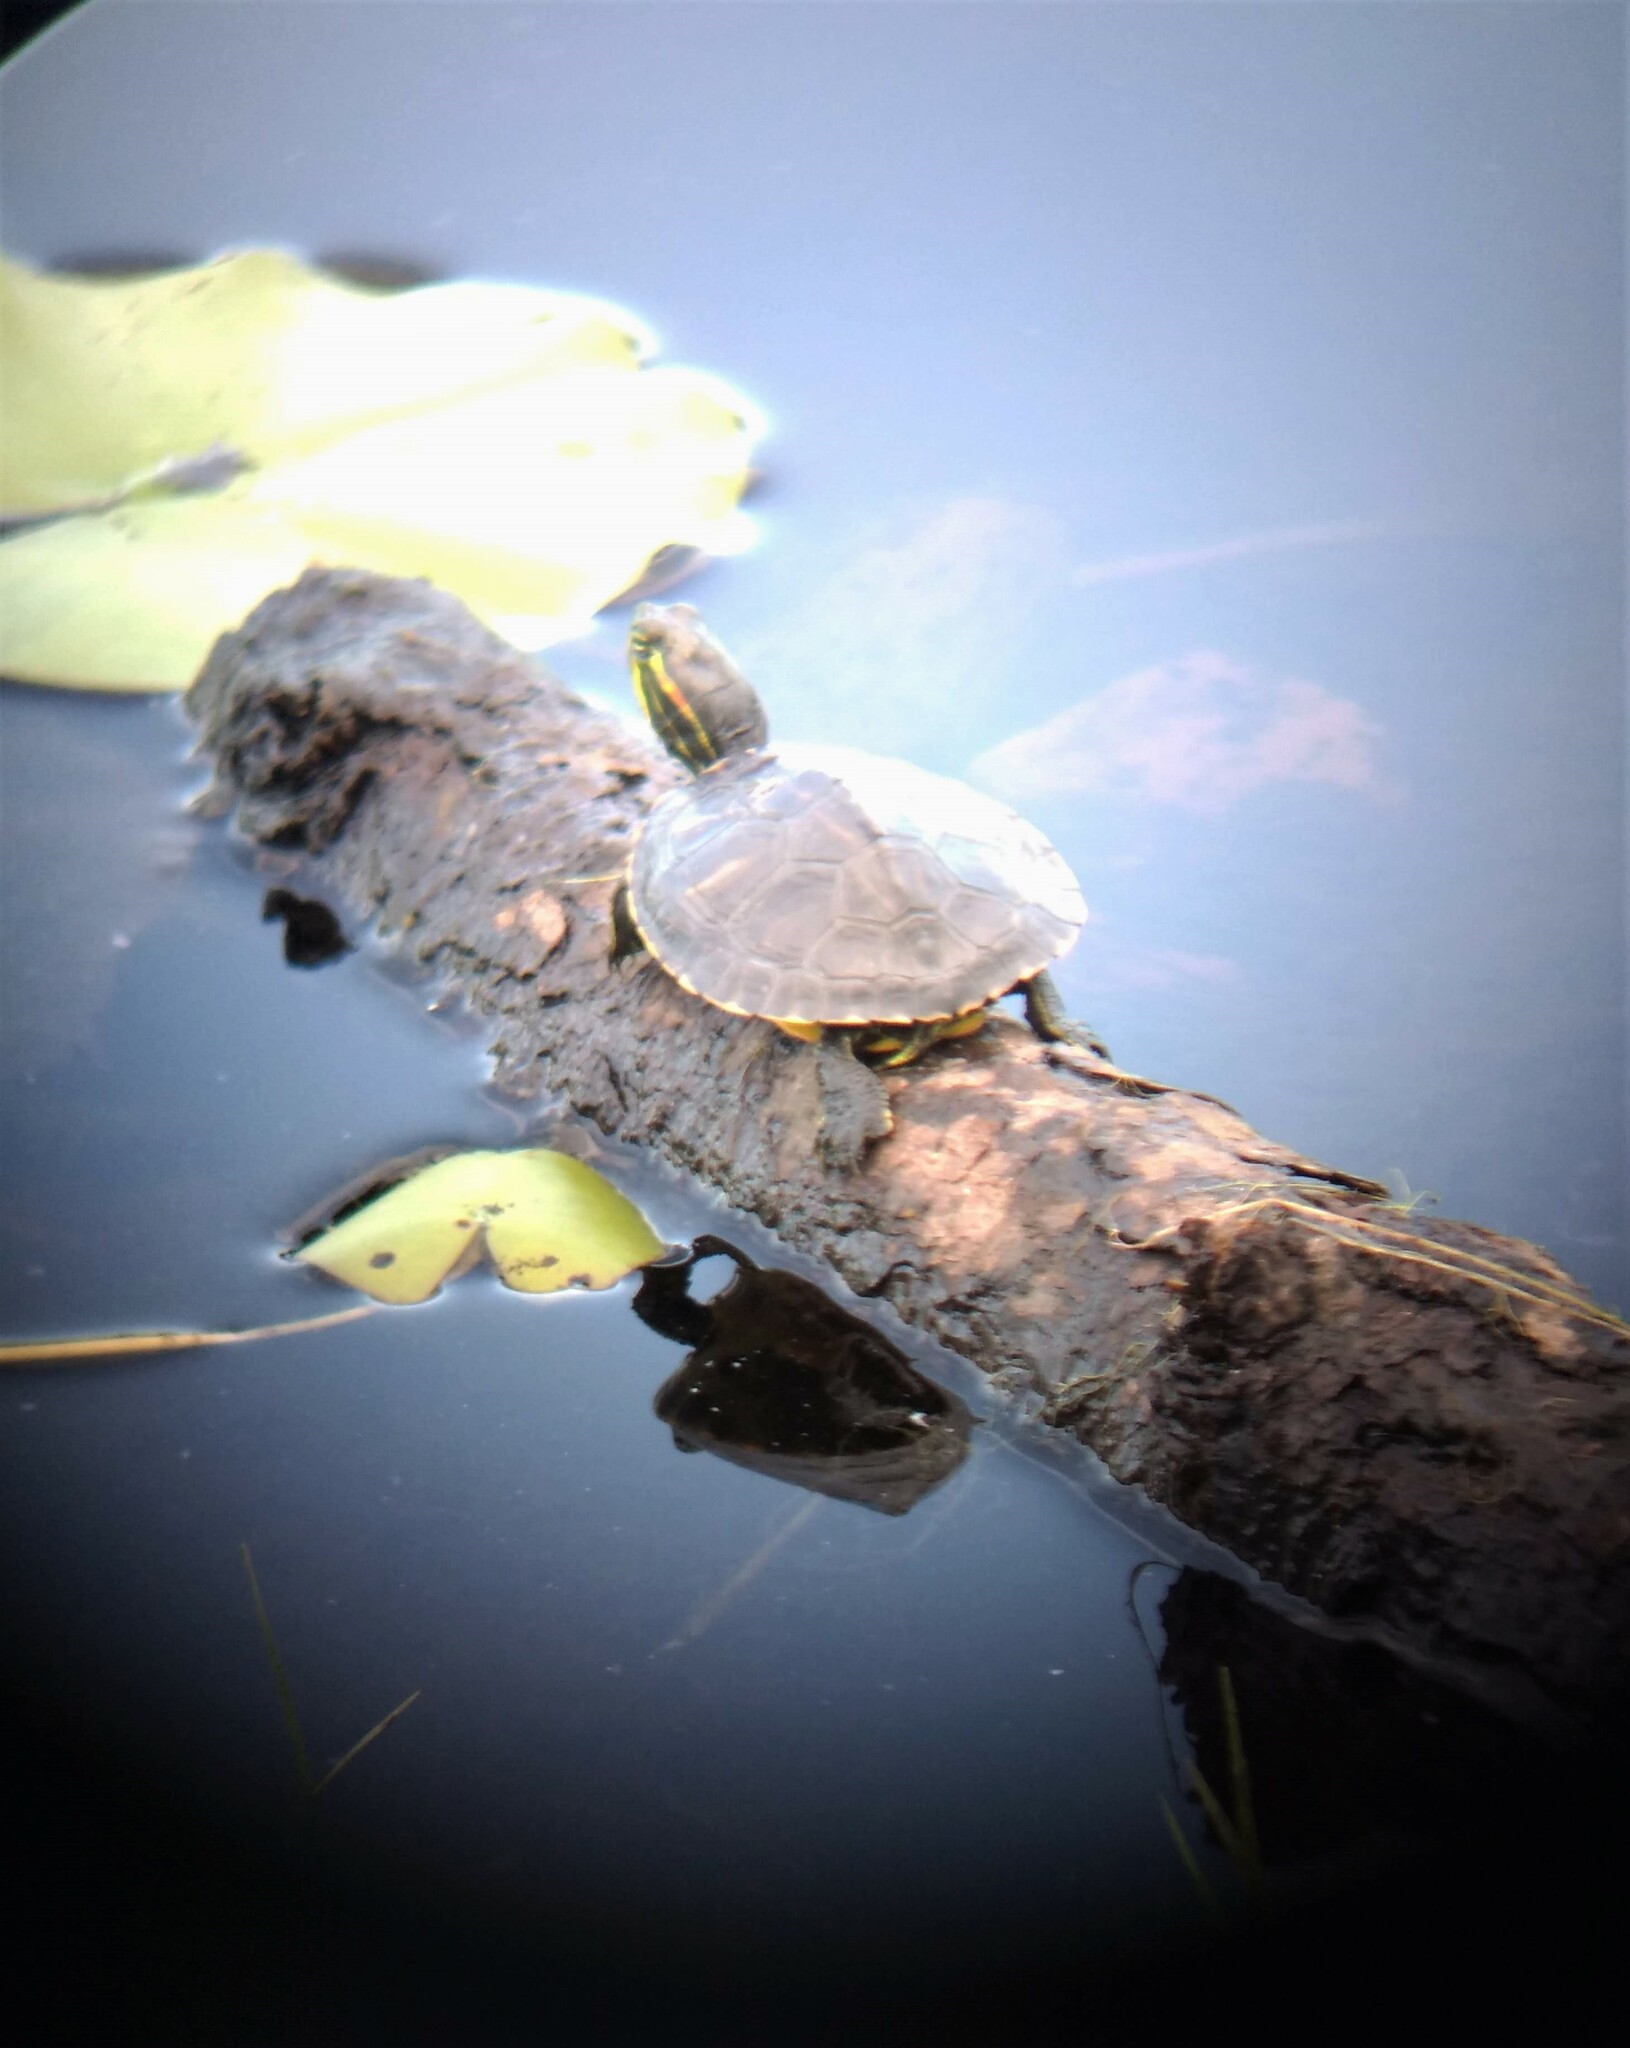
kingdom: Animalia
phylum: Chordata
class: Testudines
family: Emydidae
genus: Trachemys
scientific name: Trachemys scripta
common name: Slider
